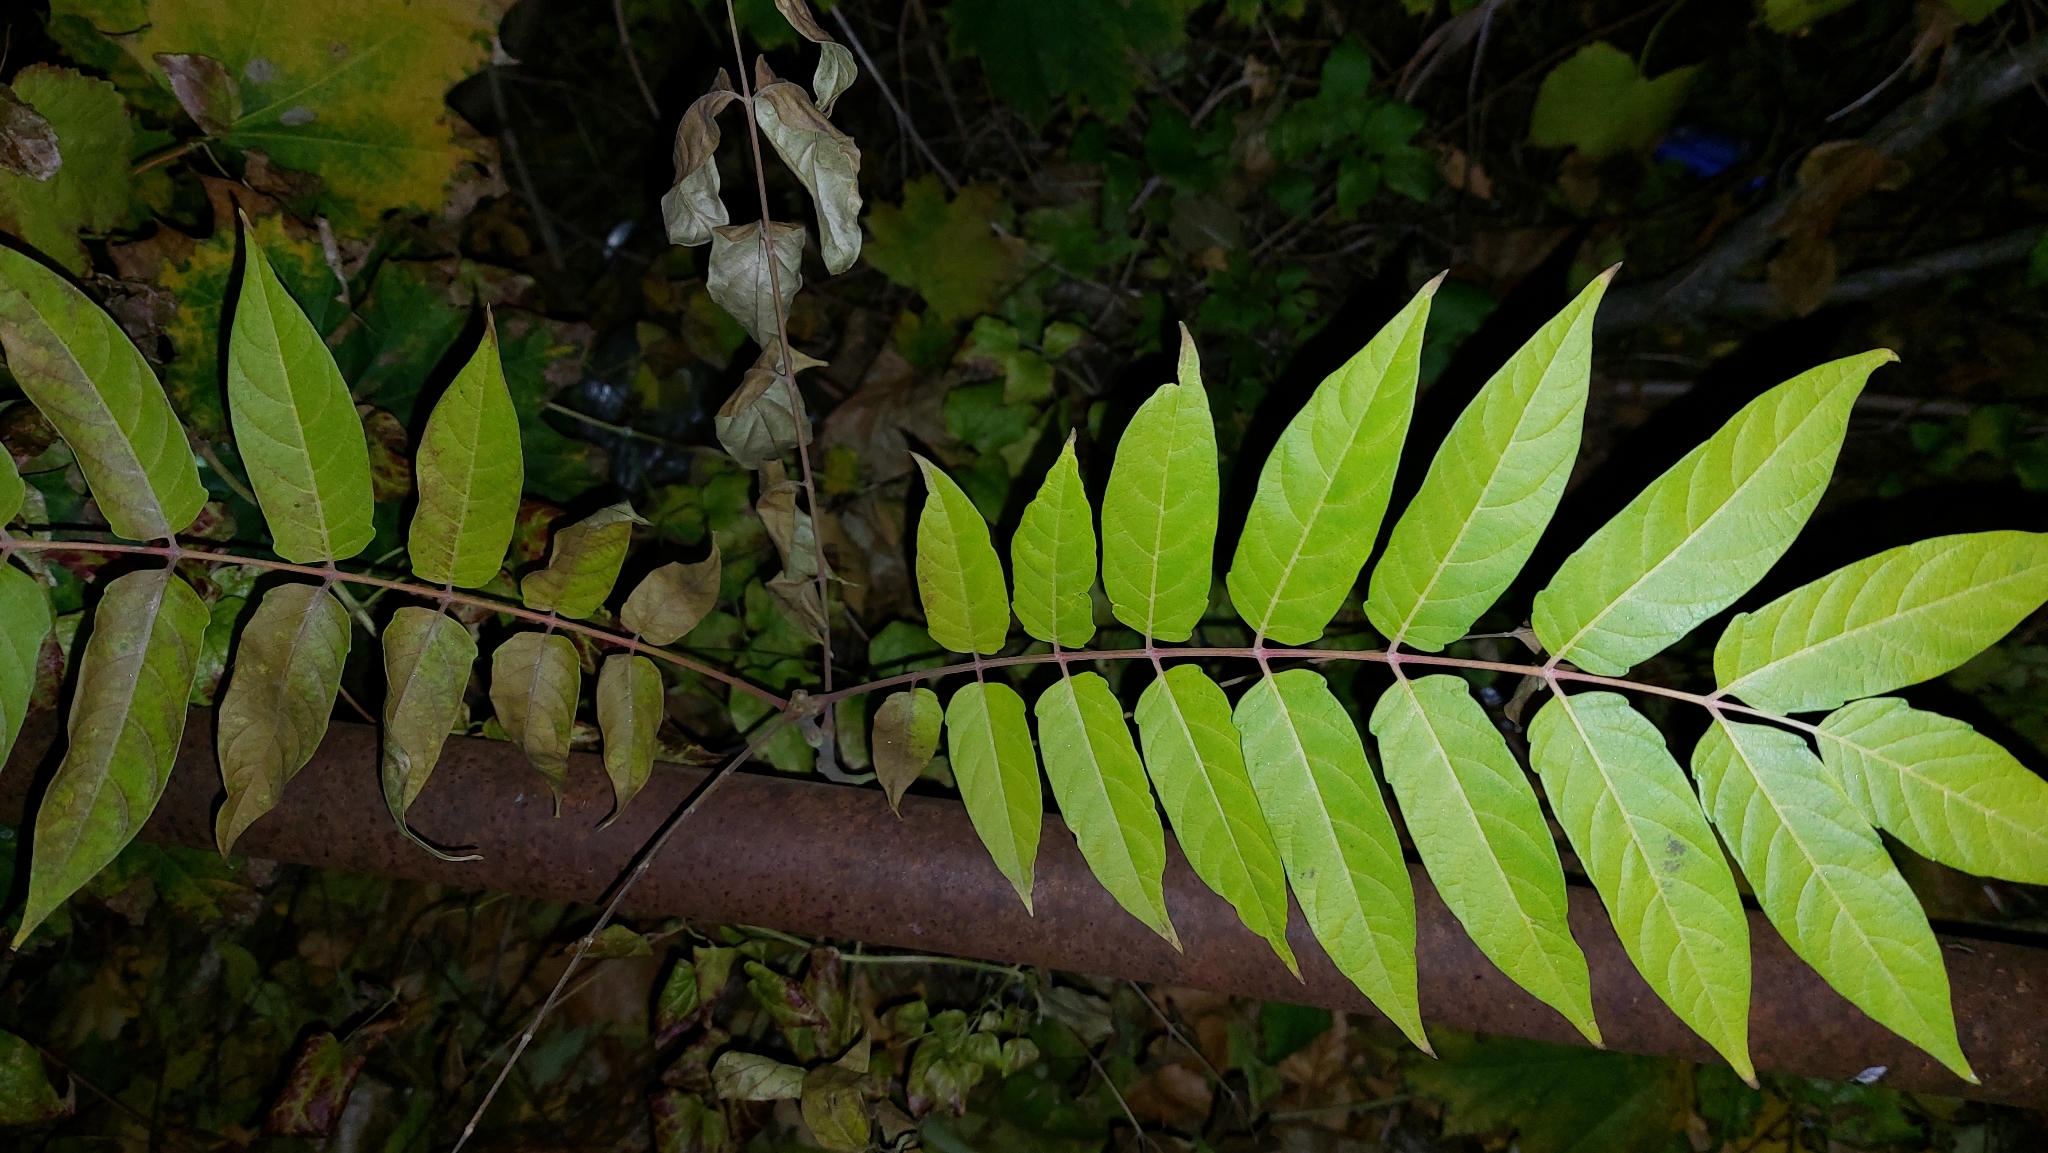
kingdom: Plantae
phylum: Tracheophyta
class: Magnoliopsida
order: Sapindales
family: Simaroubaceae
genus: Ailanthus
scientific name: Ailanthus altissima
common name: Tree-of-heaven
